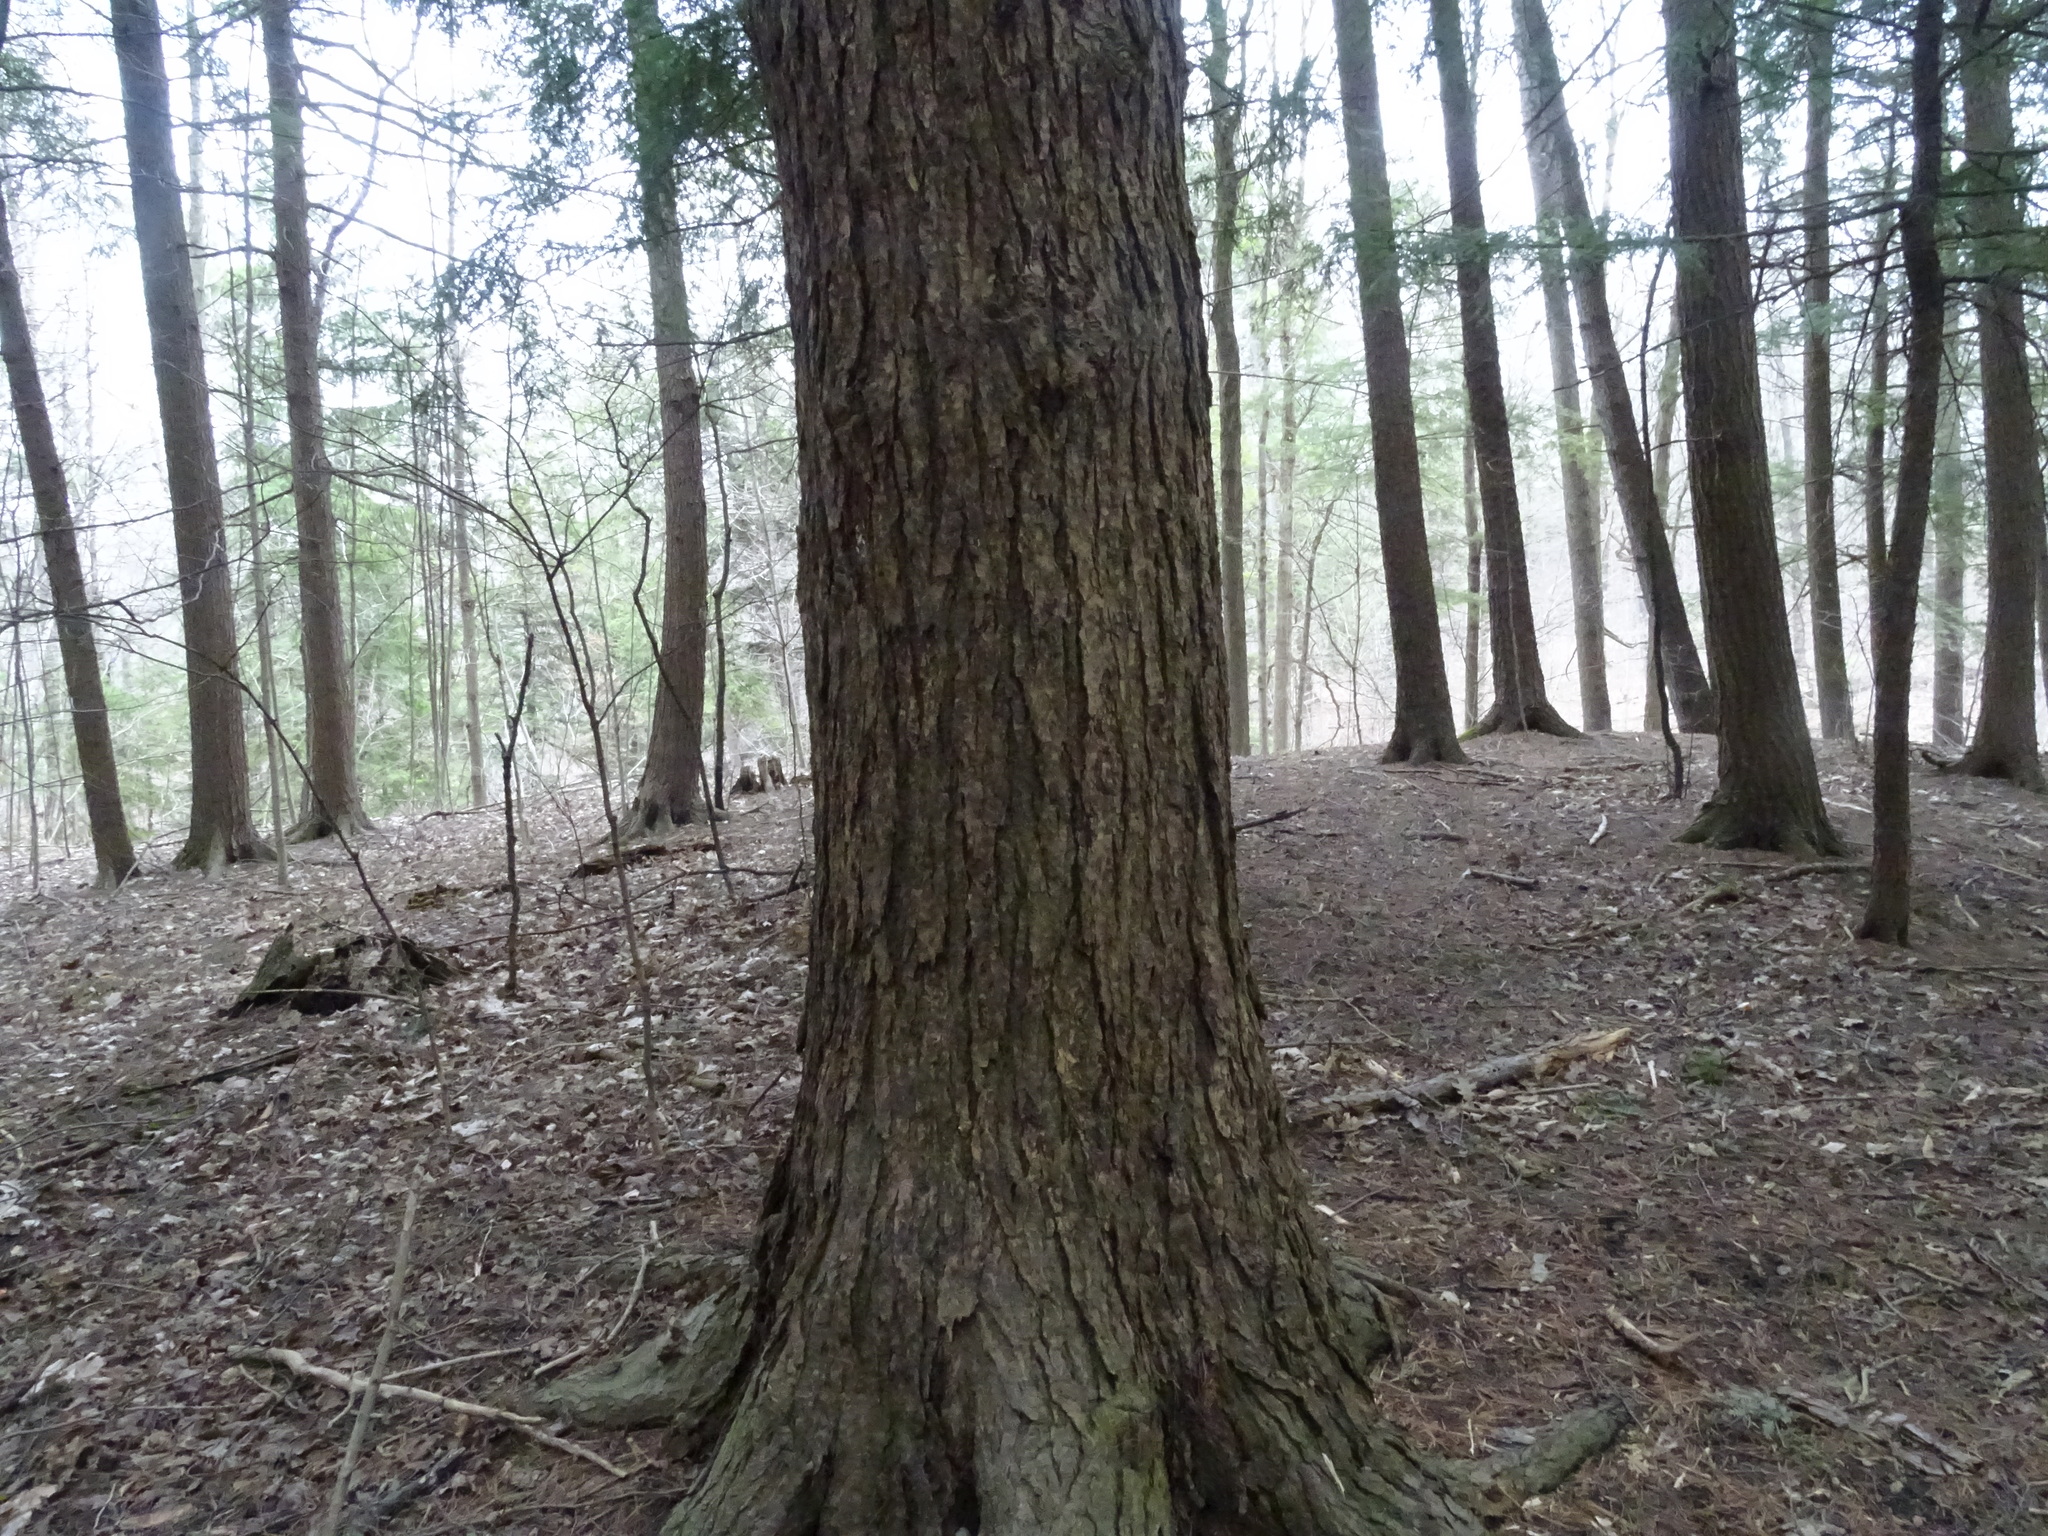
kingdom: Plantae
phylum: Tracheophyta
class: Pinopsida
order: Pinales
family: Pinaceae
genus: Tsuga
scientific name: Tsuga canadensis
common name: Eastern hemlock
